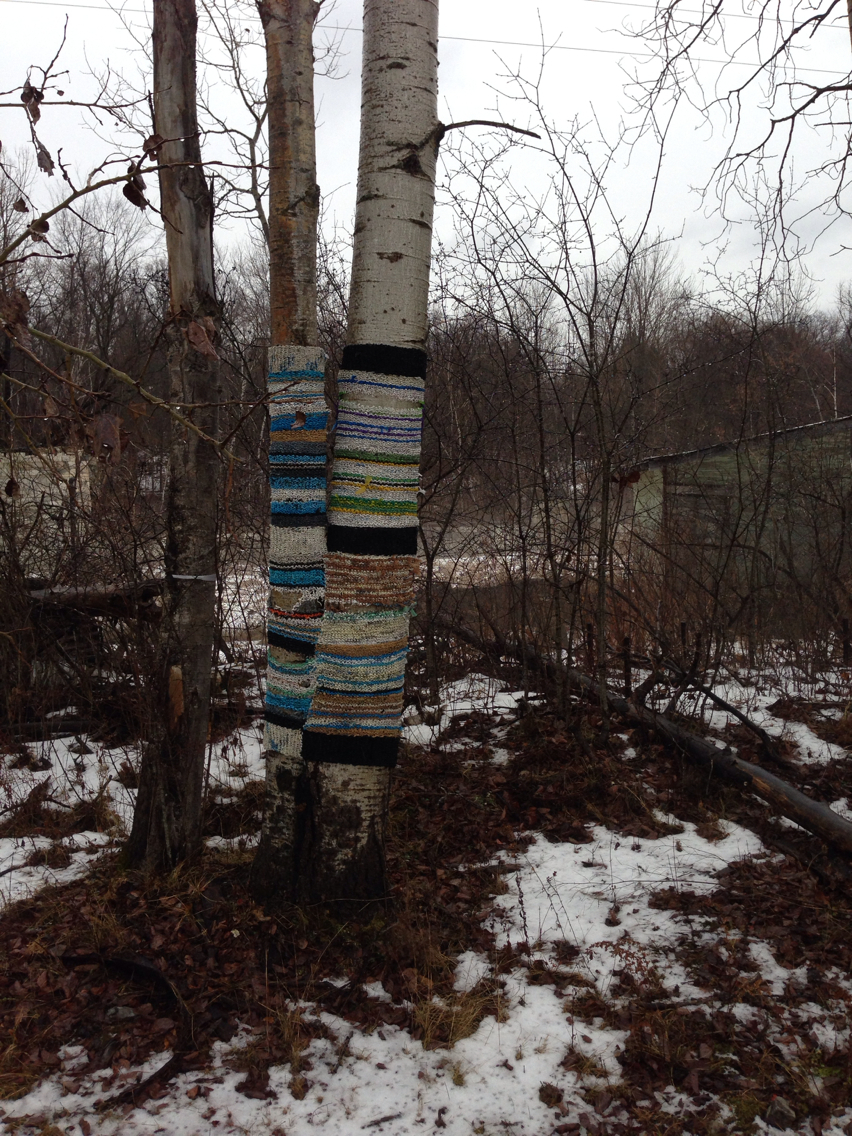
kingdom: Plantae
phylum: Tracheophyta
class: Magnoliopsida
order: Malpighiales
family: Salicaceae
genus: Populus
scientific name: Populus tremuloides
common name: Quaking aspen
